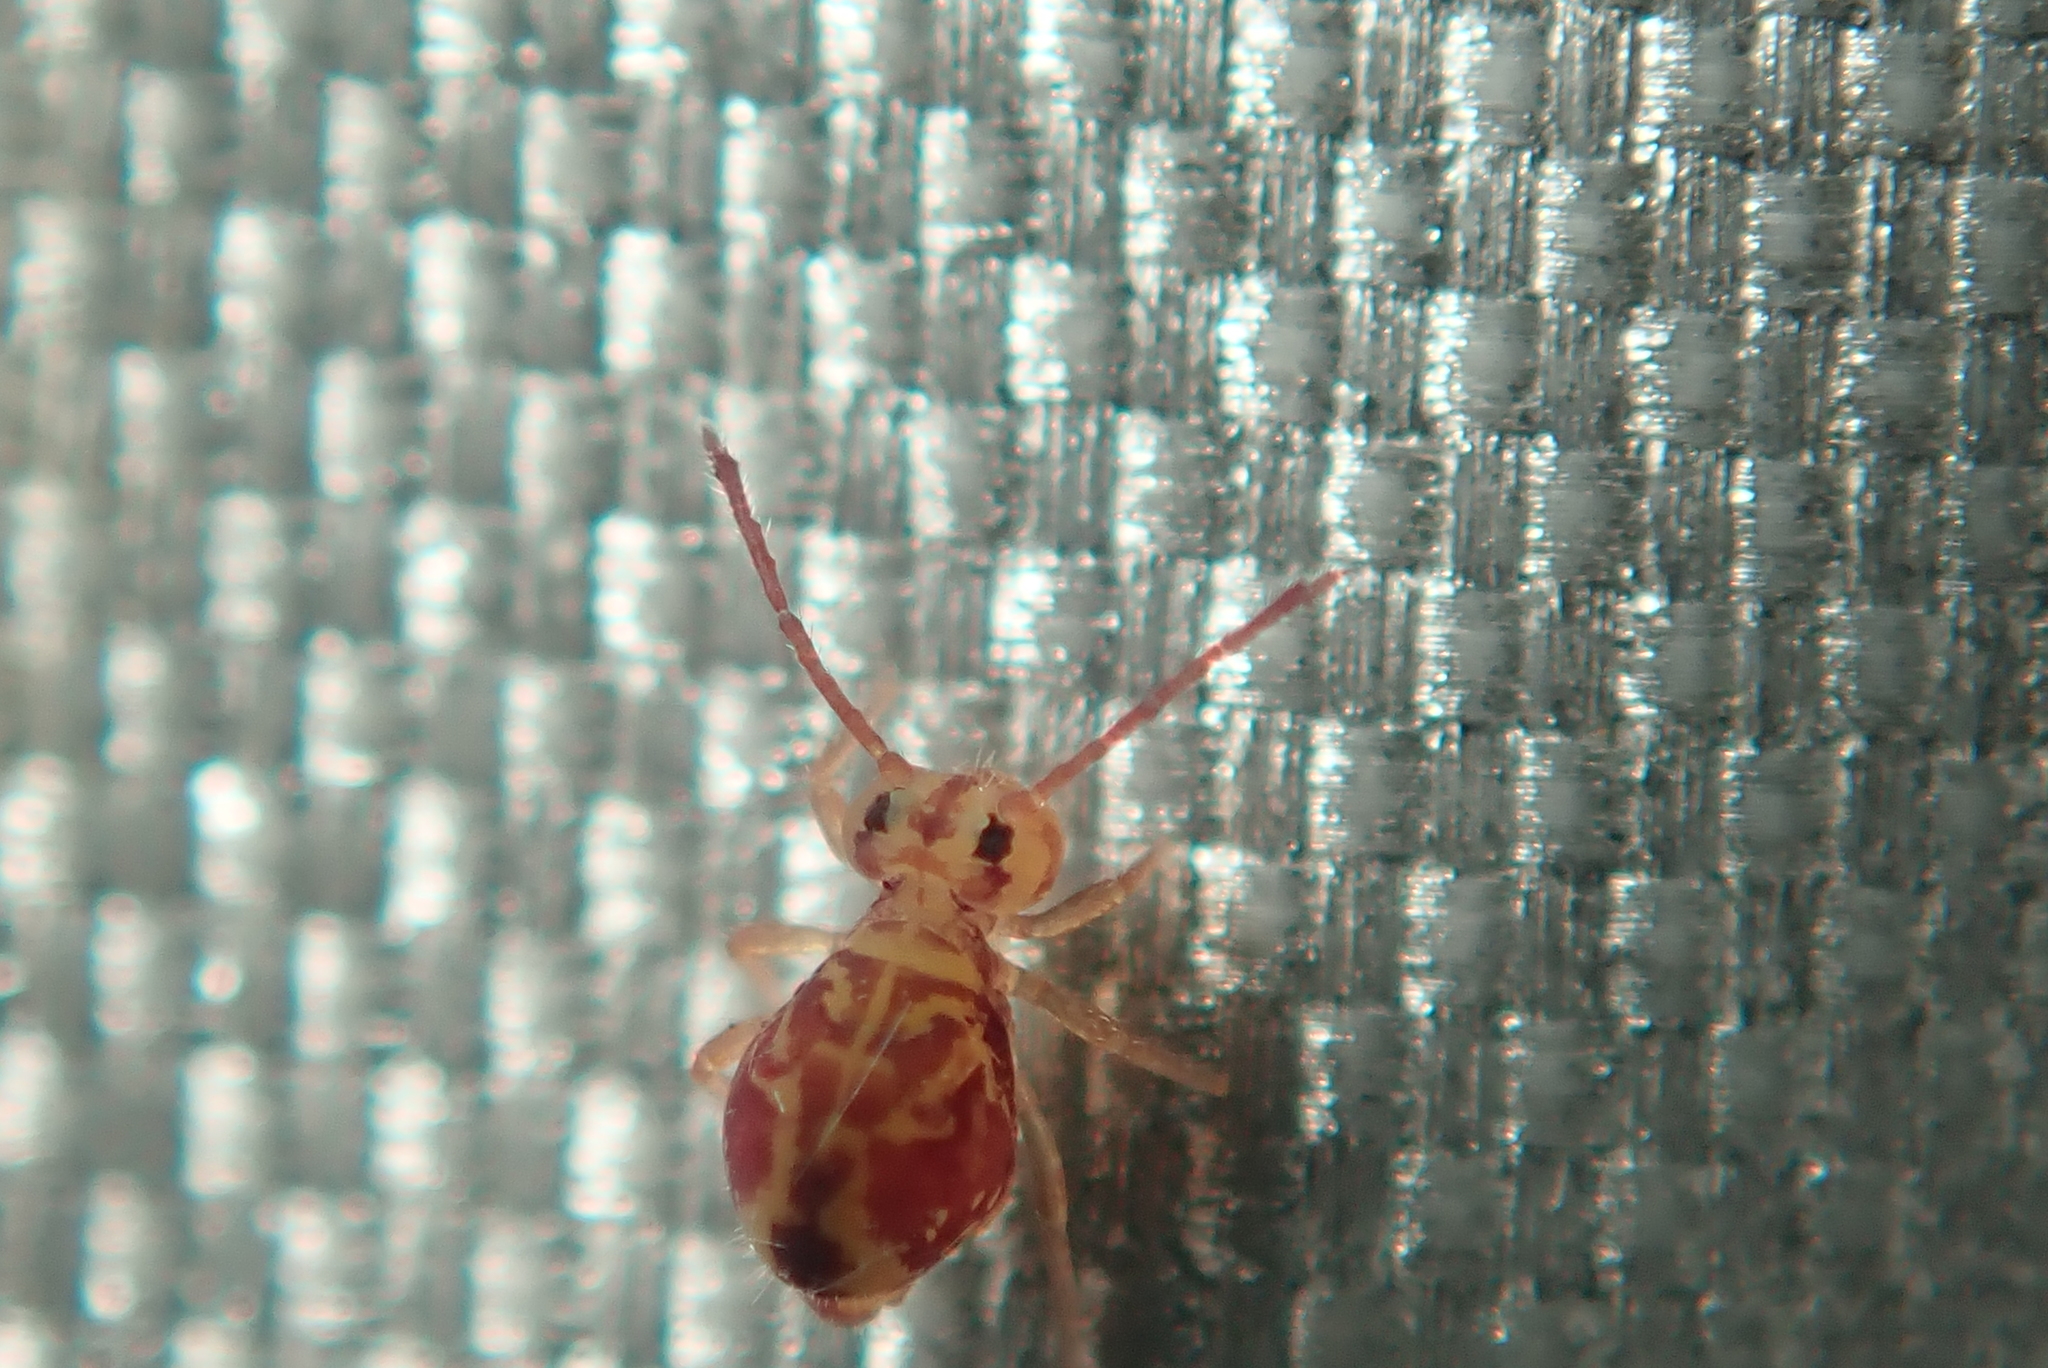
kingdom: Animalia
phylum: Arthropoda
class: Collembola
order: Symphypleona
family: Dicyrtomidae
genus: Dicyrtomina
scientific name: Dicyrtomina ornata
